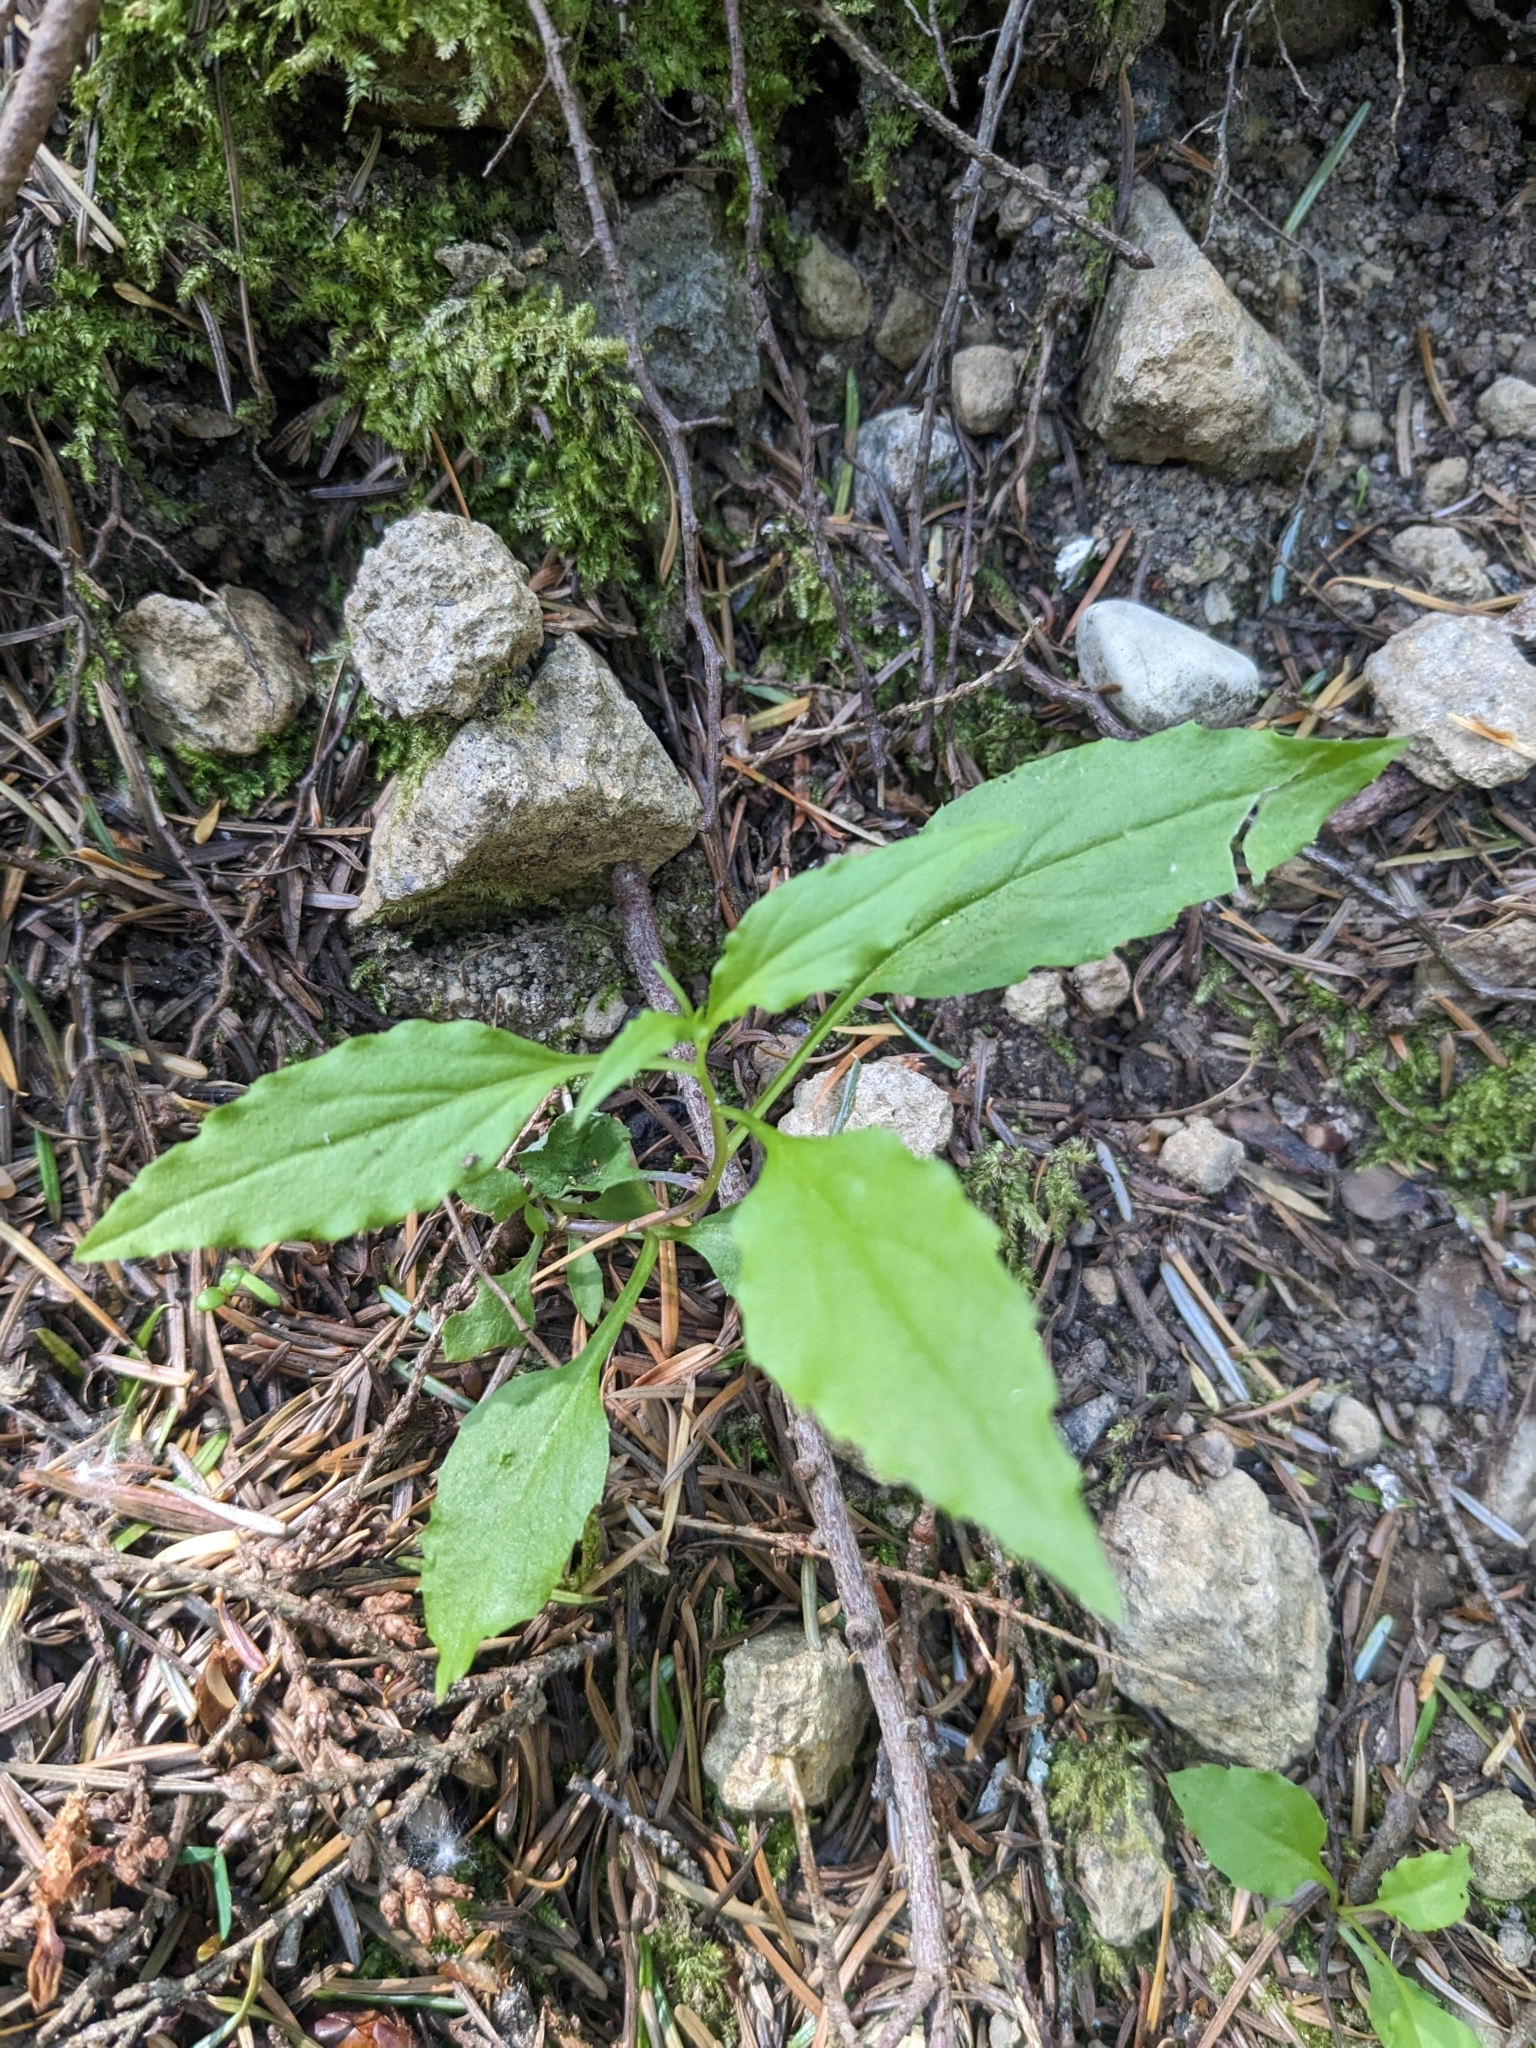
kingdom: Plantae
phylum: Tracheophyta
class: Magnoliopsida
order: Asterales
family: Campanulaceae
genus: Campanula
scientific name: Campanula scouleri
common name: Scouler's harebell
